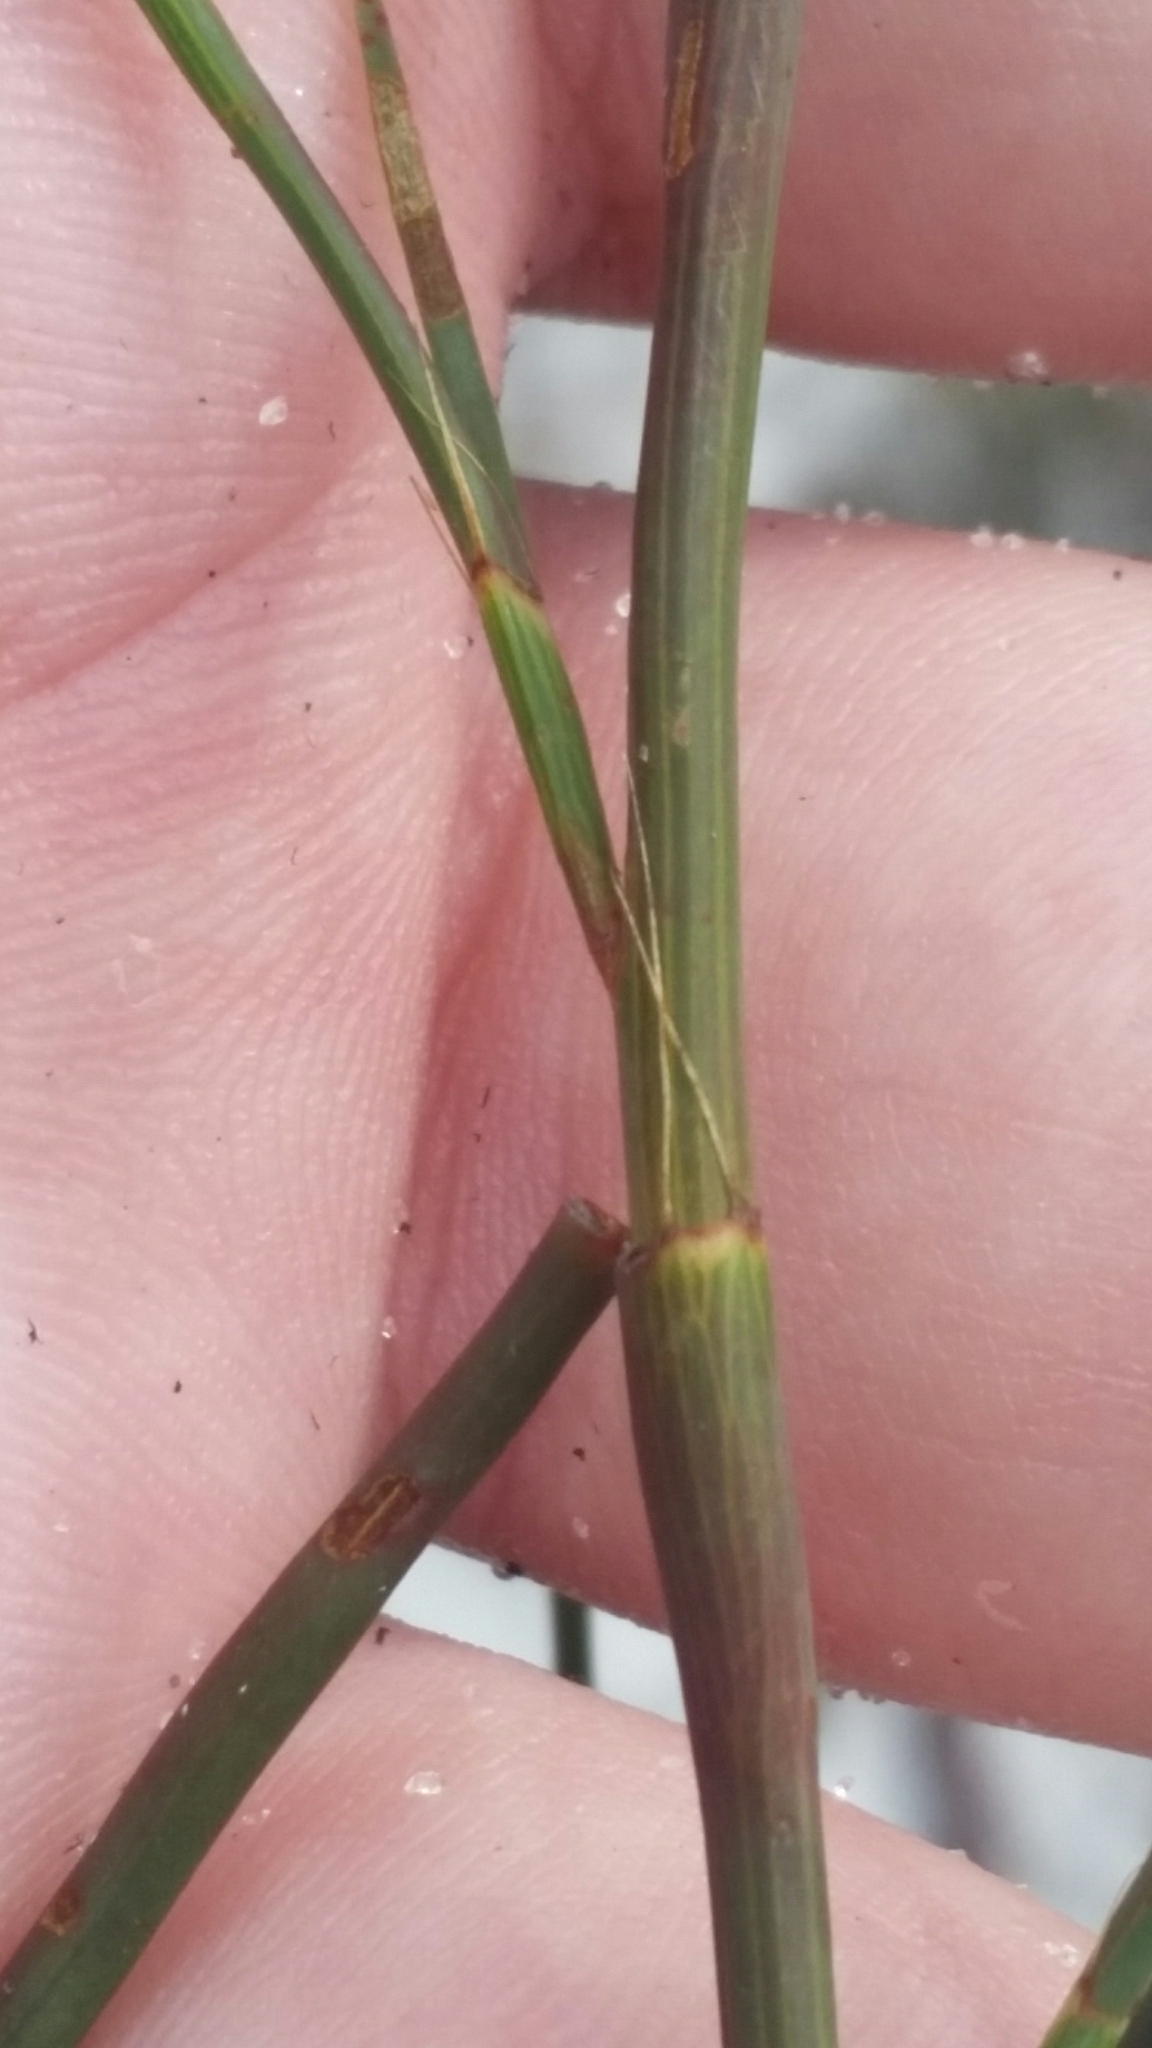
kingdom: Plantae
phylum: Tracheophyta
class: Magnoliopsida
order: Caryophyllales
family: Polygonaceae
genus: Polygonella
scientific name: Polygonella ciliata
